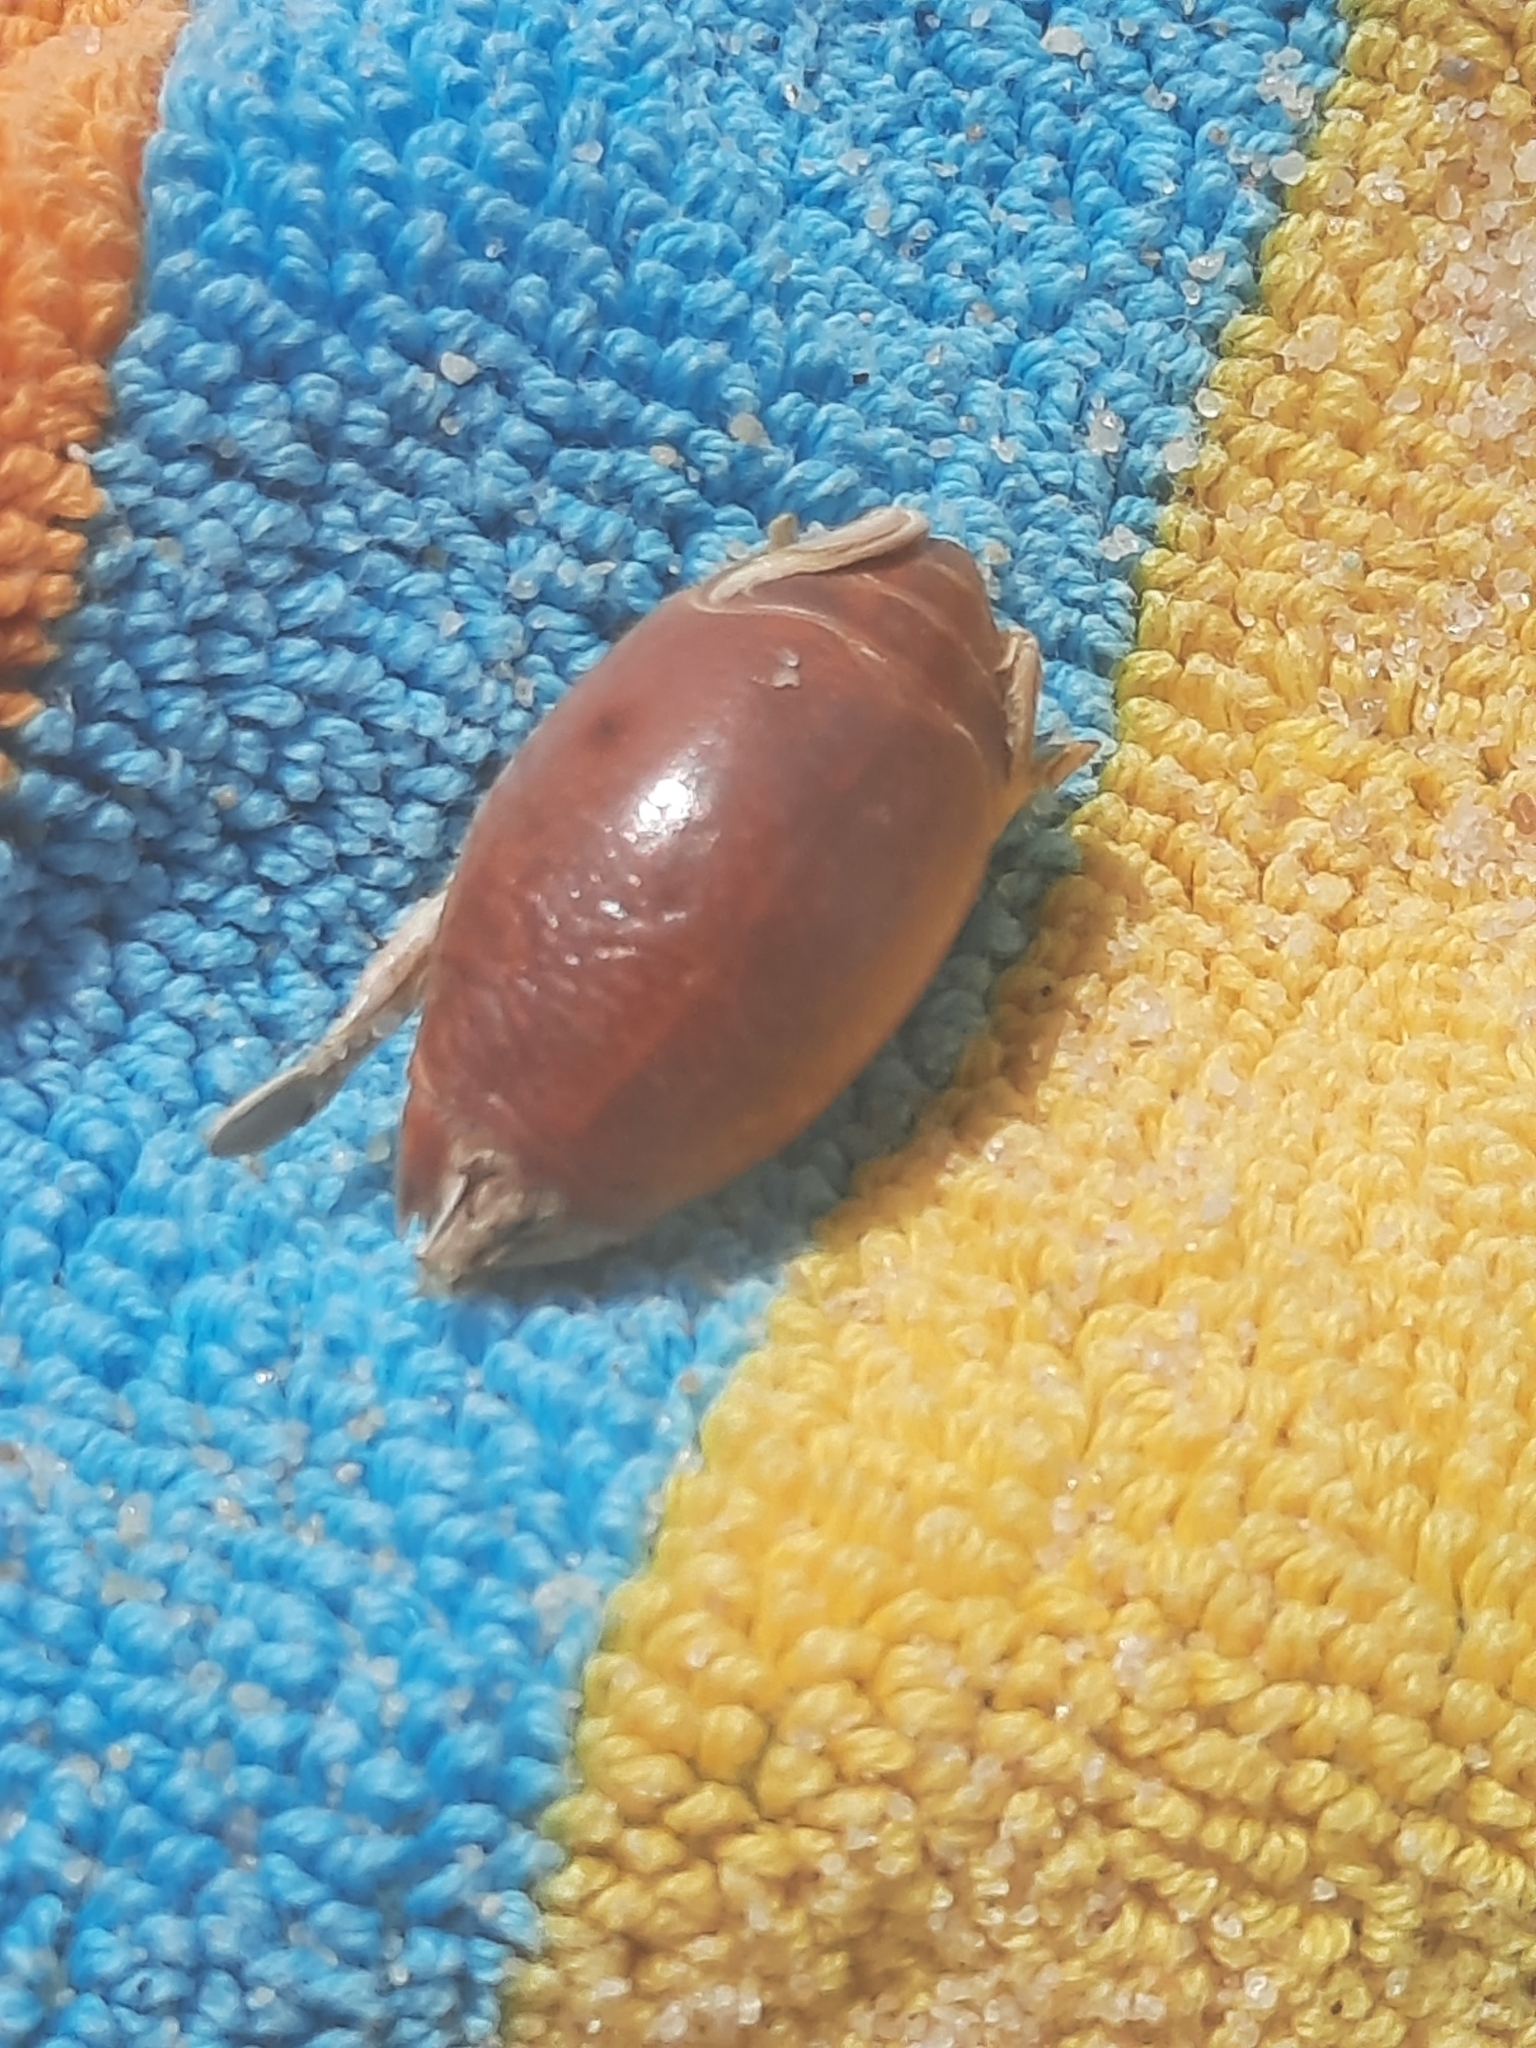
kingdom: Animalia
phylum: Arthropoda
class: Malacostraca
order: Decapoda
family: Hippidae
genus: Emerita
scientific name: Emerita talpoida
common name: Atlantic sand crab
